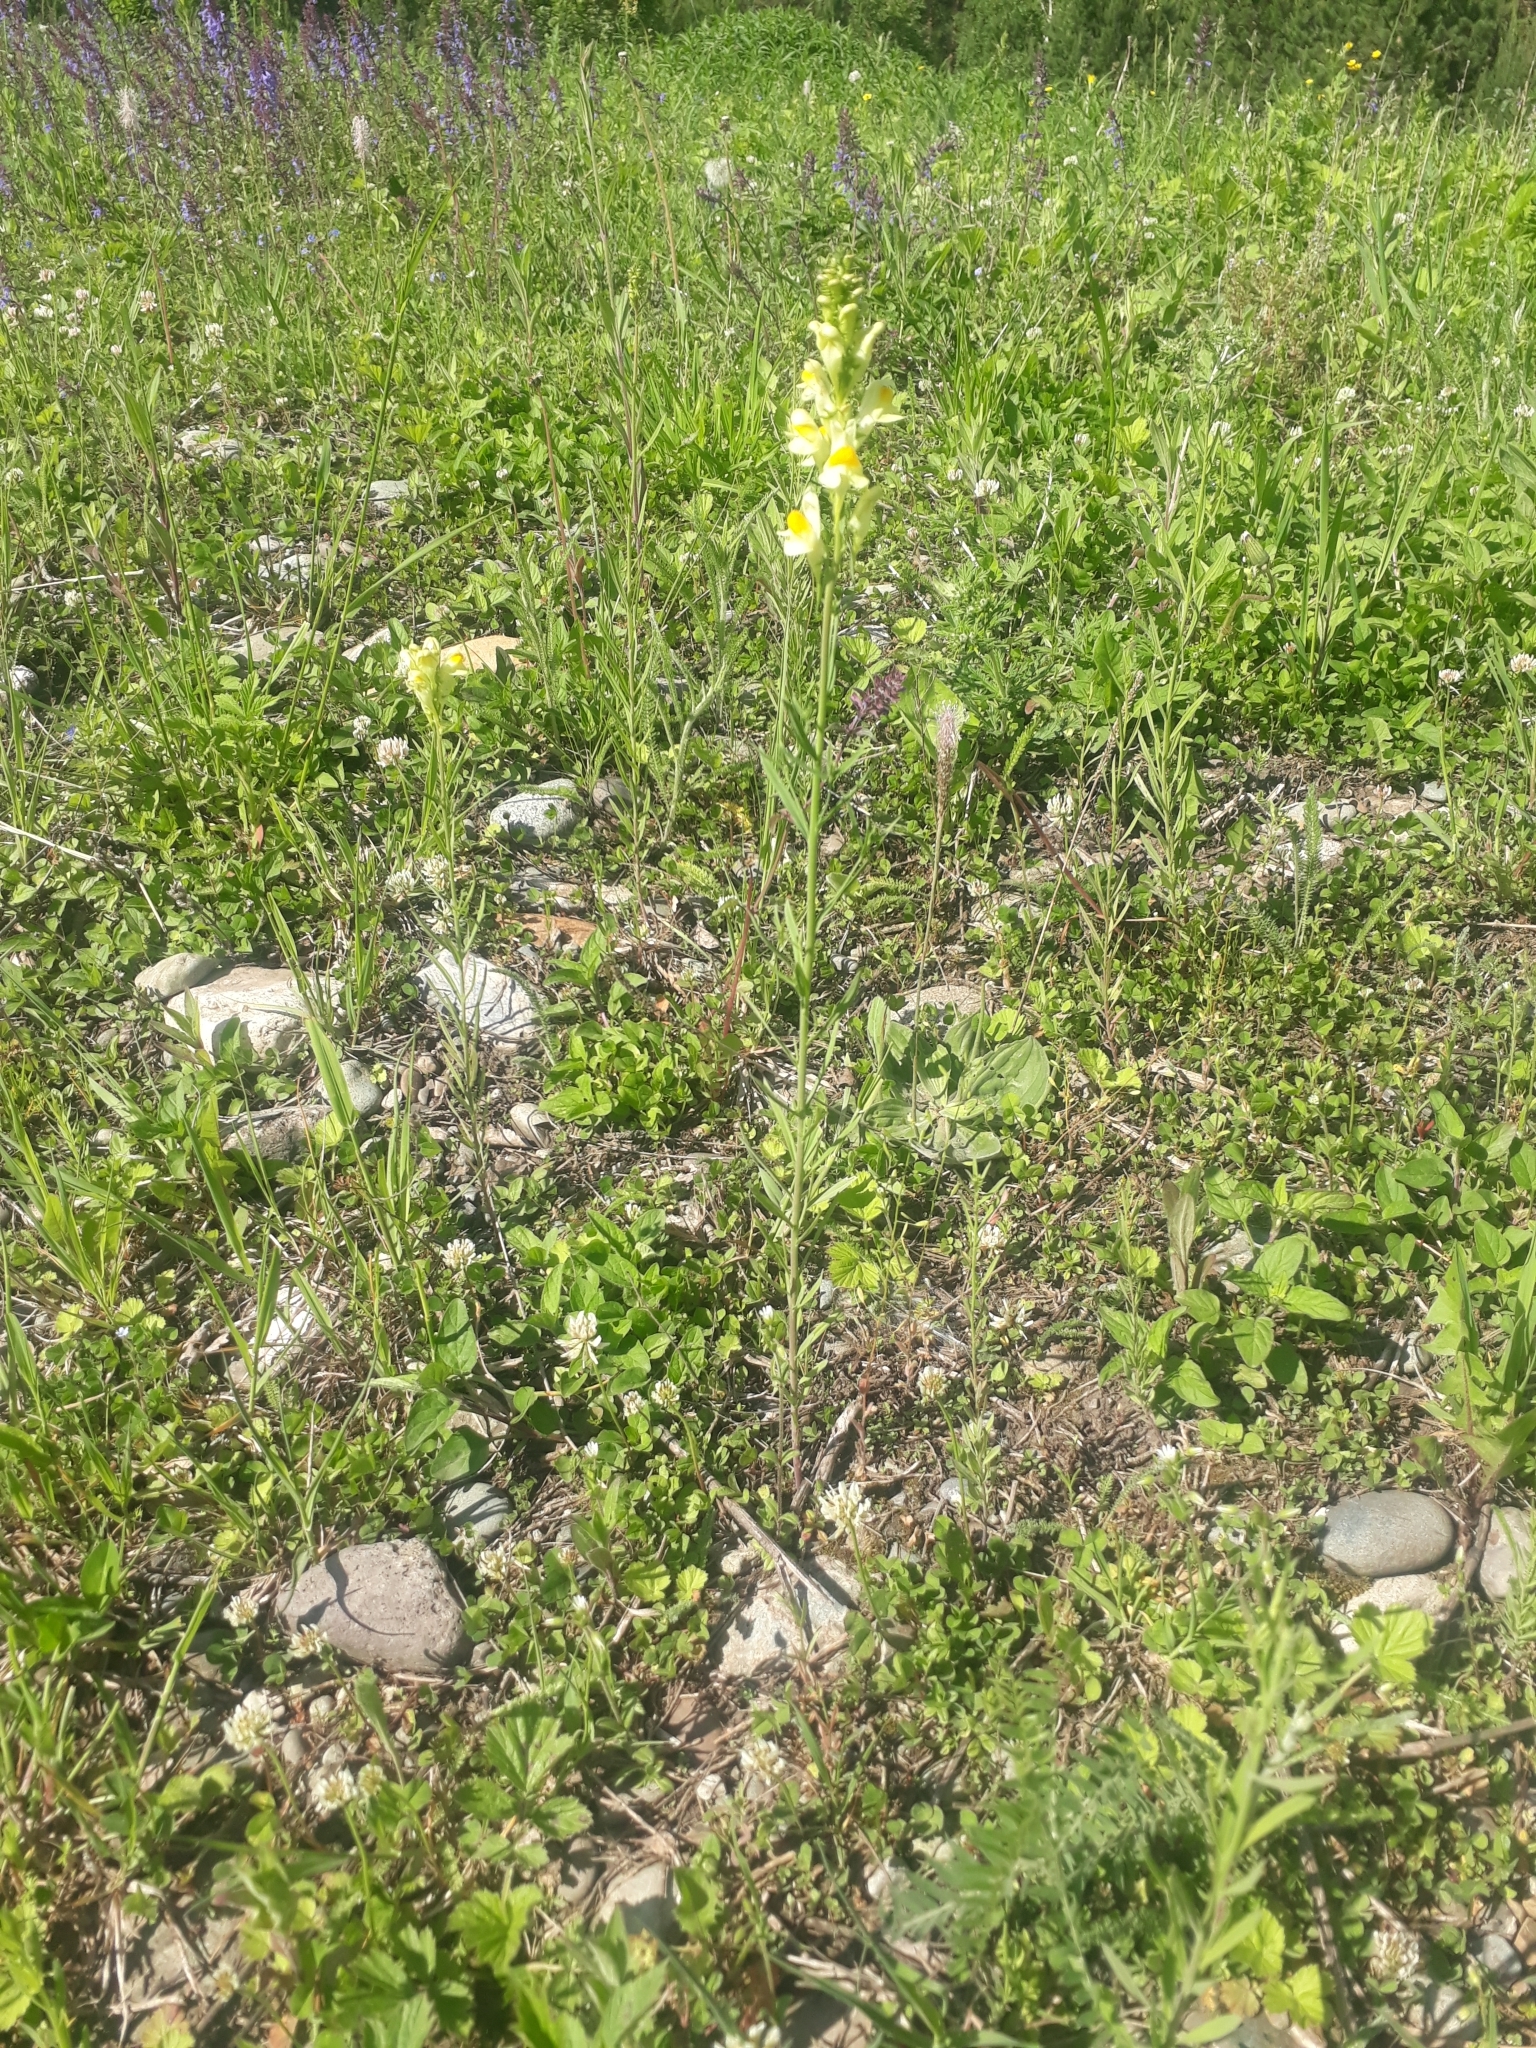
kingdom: Plantae
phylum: Tracheophyta
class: Magnoliopsida
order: Lamiales
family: Plantaginaceae
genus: Linaria
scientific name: Linaria vulgaris
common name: Butter and eggs
